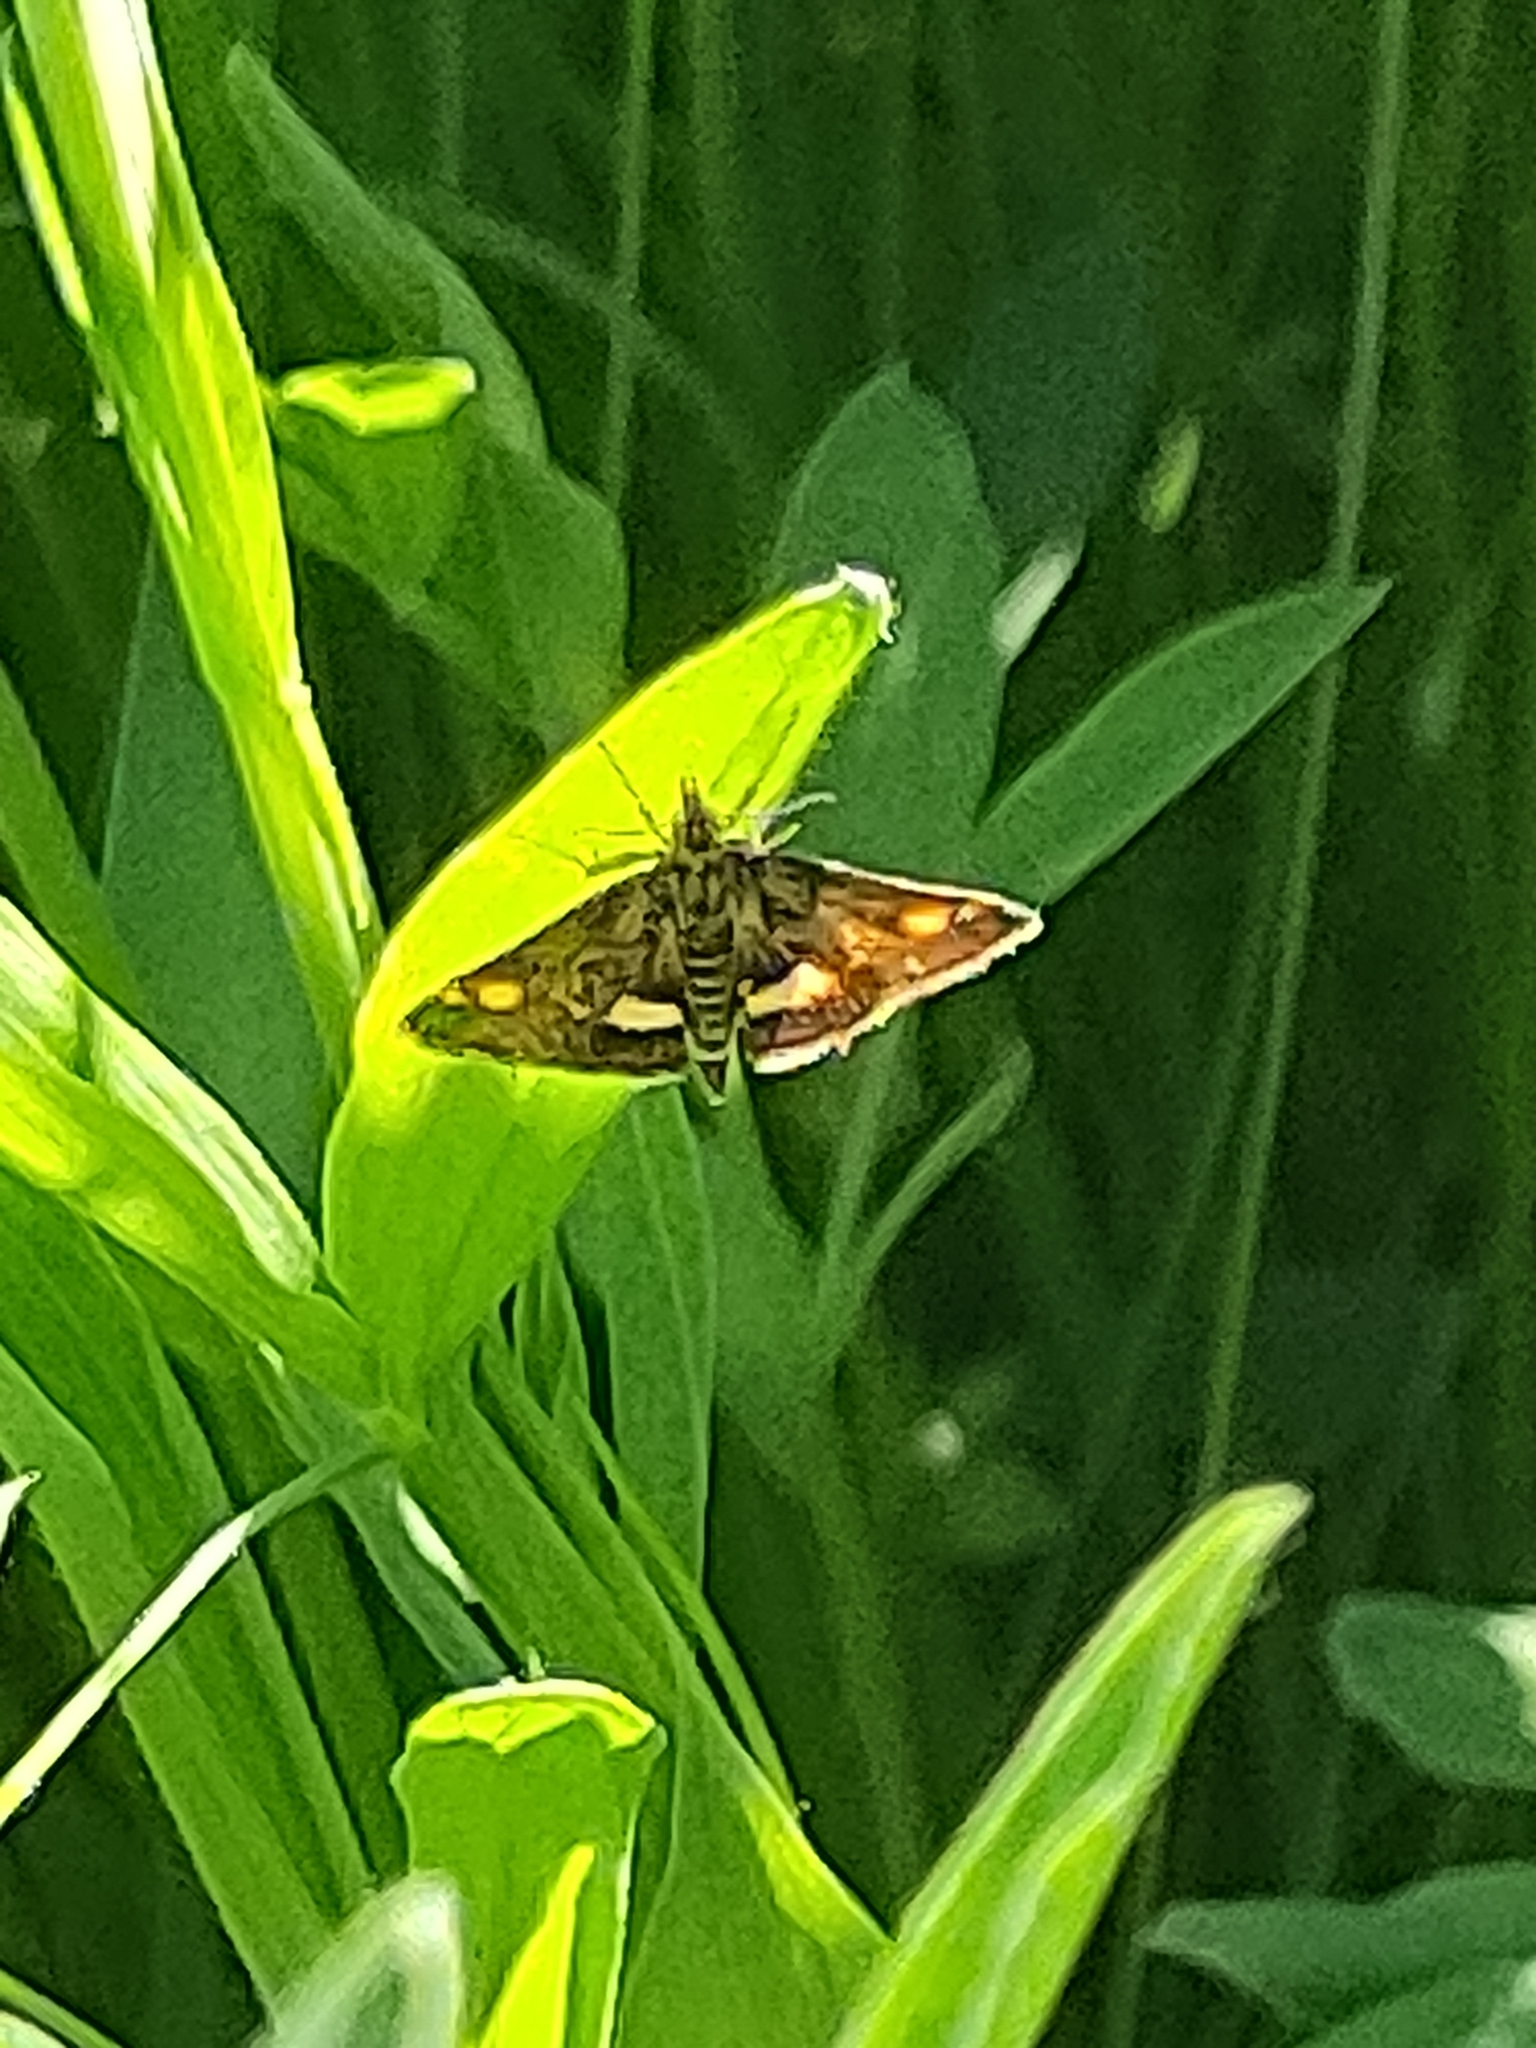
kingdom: Animalia
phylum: Arthropoda
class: Insecta
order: Lepidoptera
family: Crambidae
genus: Pyrausta
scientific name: Pyrausta aurata
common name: Small purple & gold
